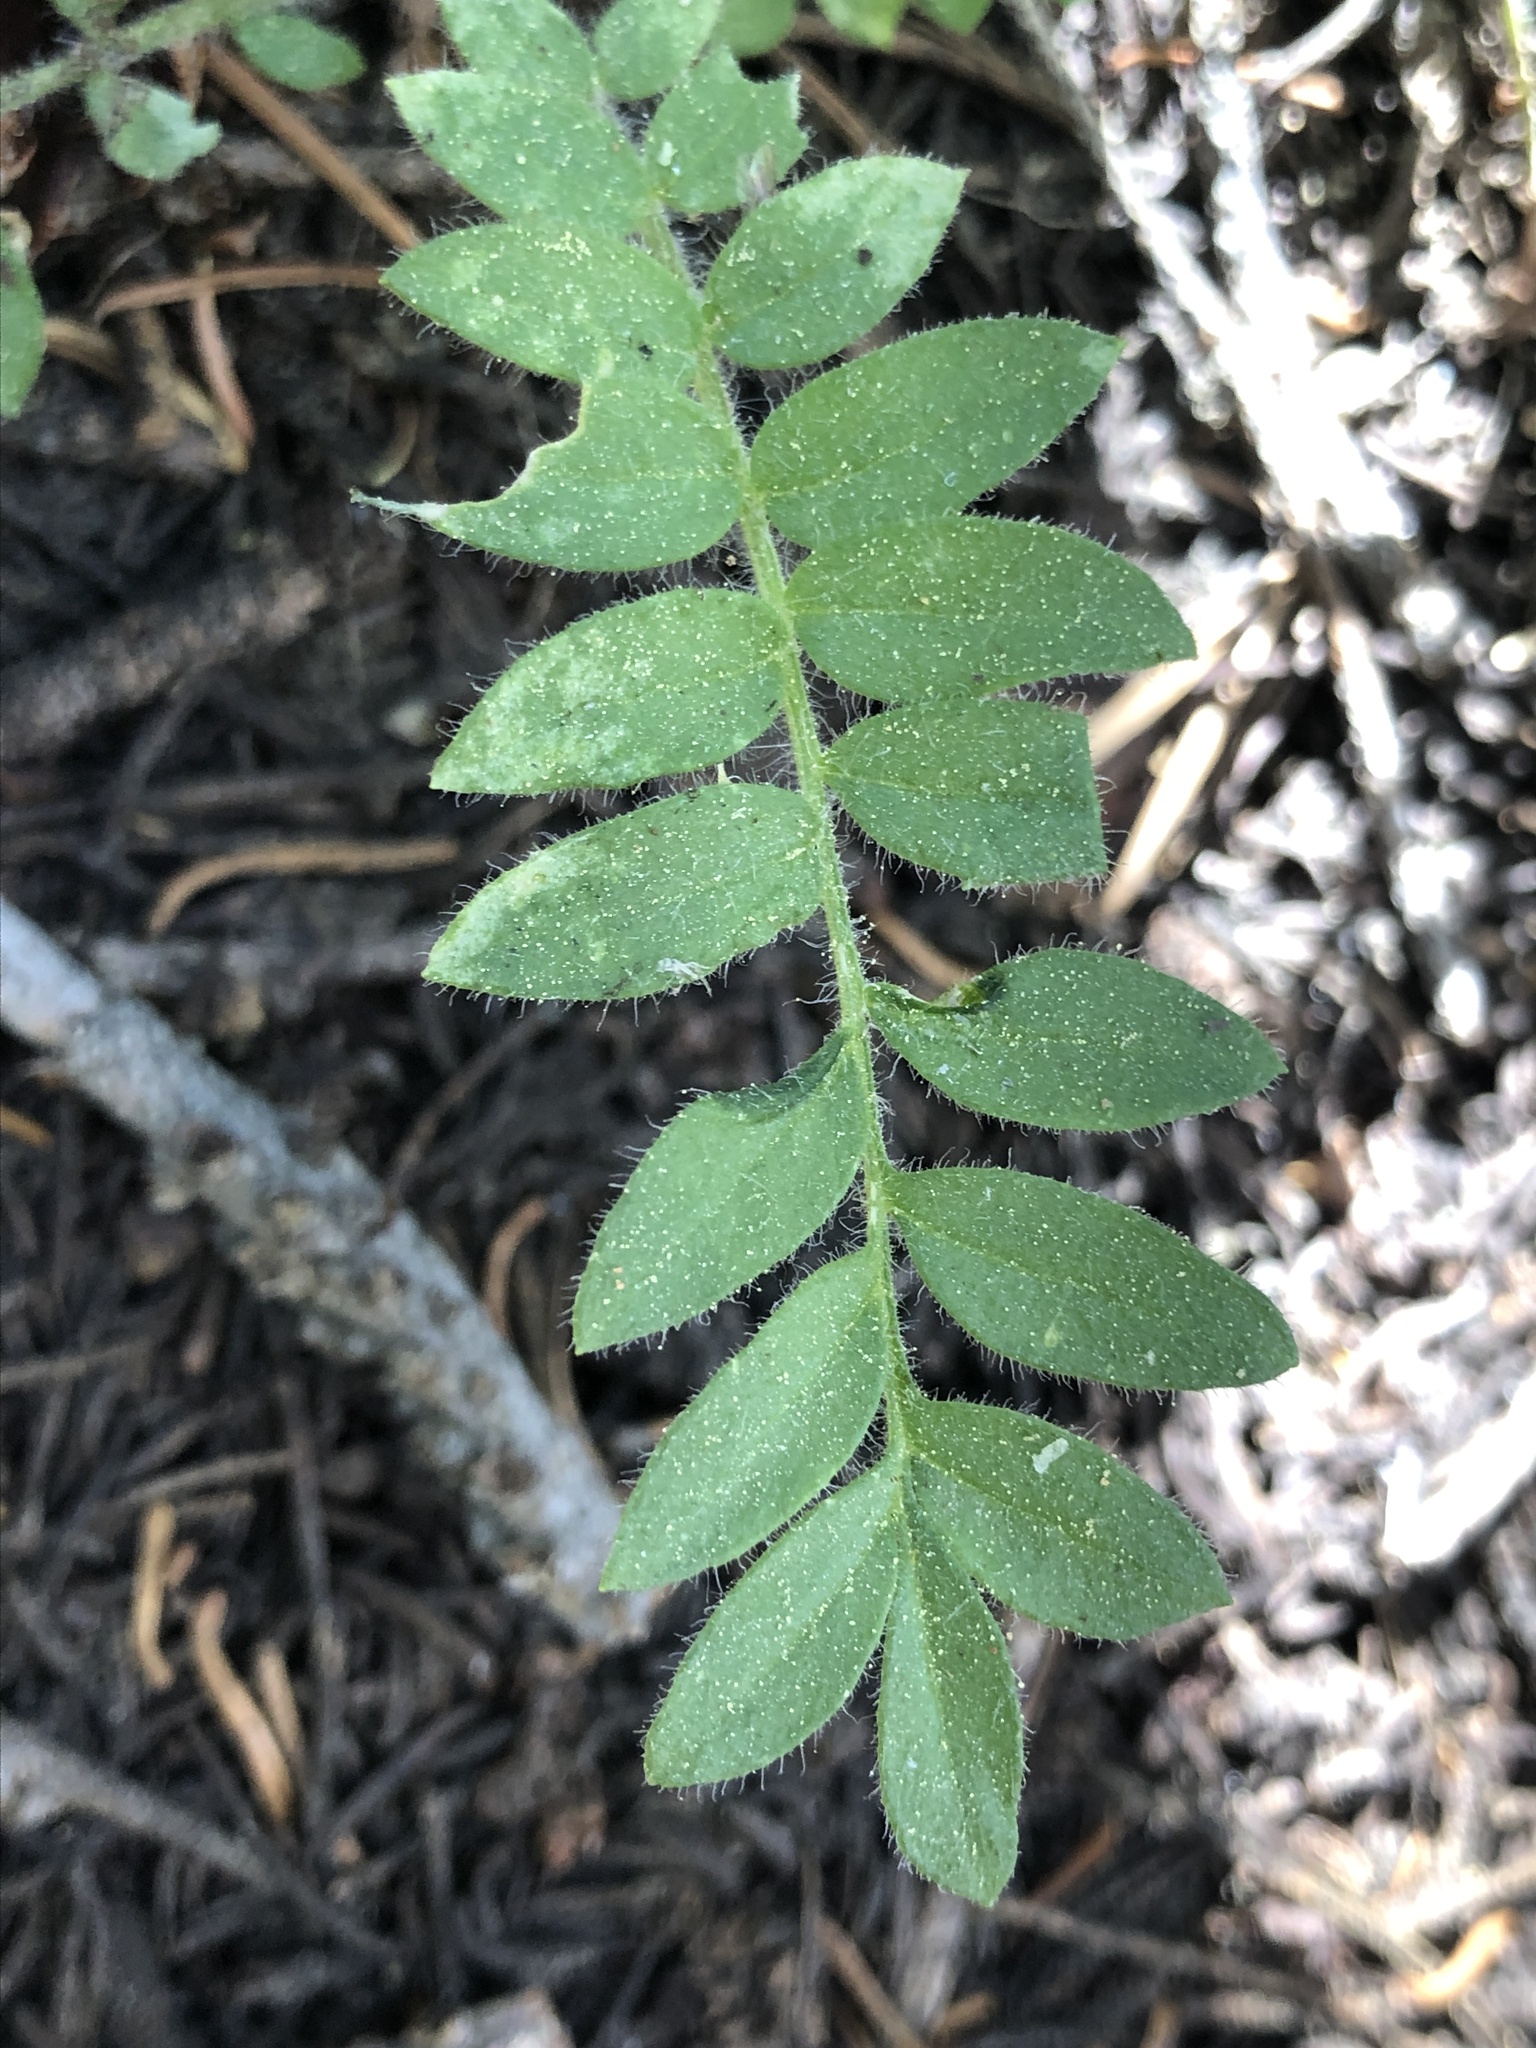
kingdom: Plantae
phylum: Tracheophyta
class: Magnoliopsida
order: Ericales
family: Polemoniaceae
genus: Polemonium
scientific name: Polemonium californicum
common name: California jacob's ladder
